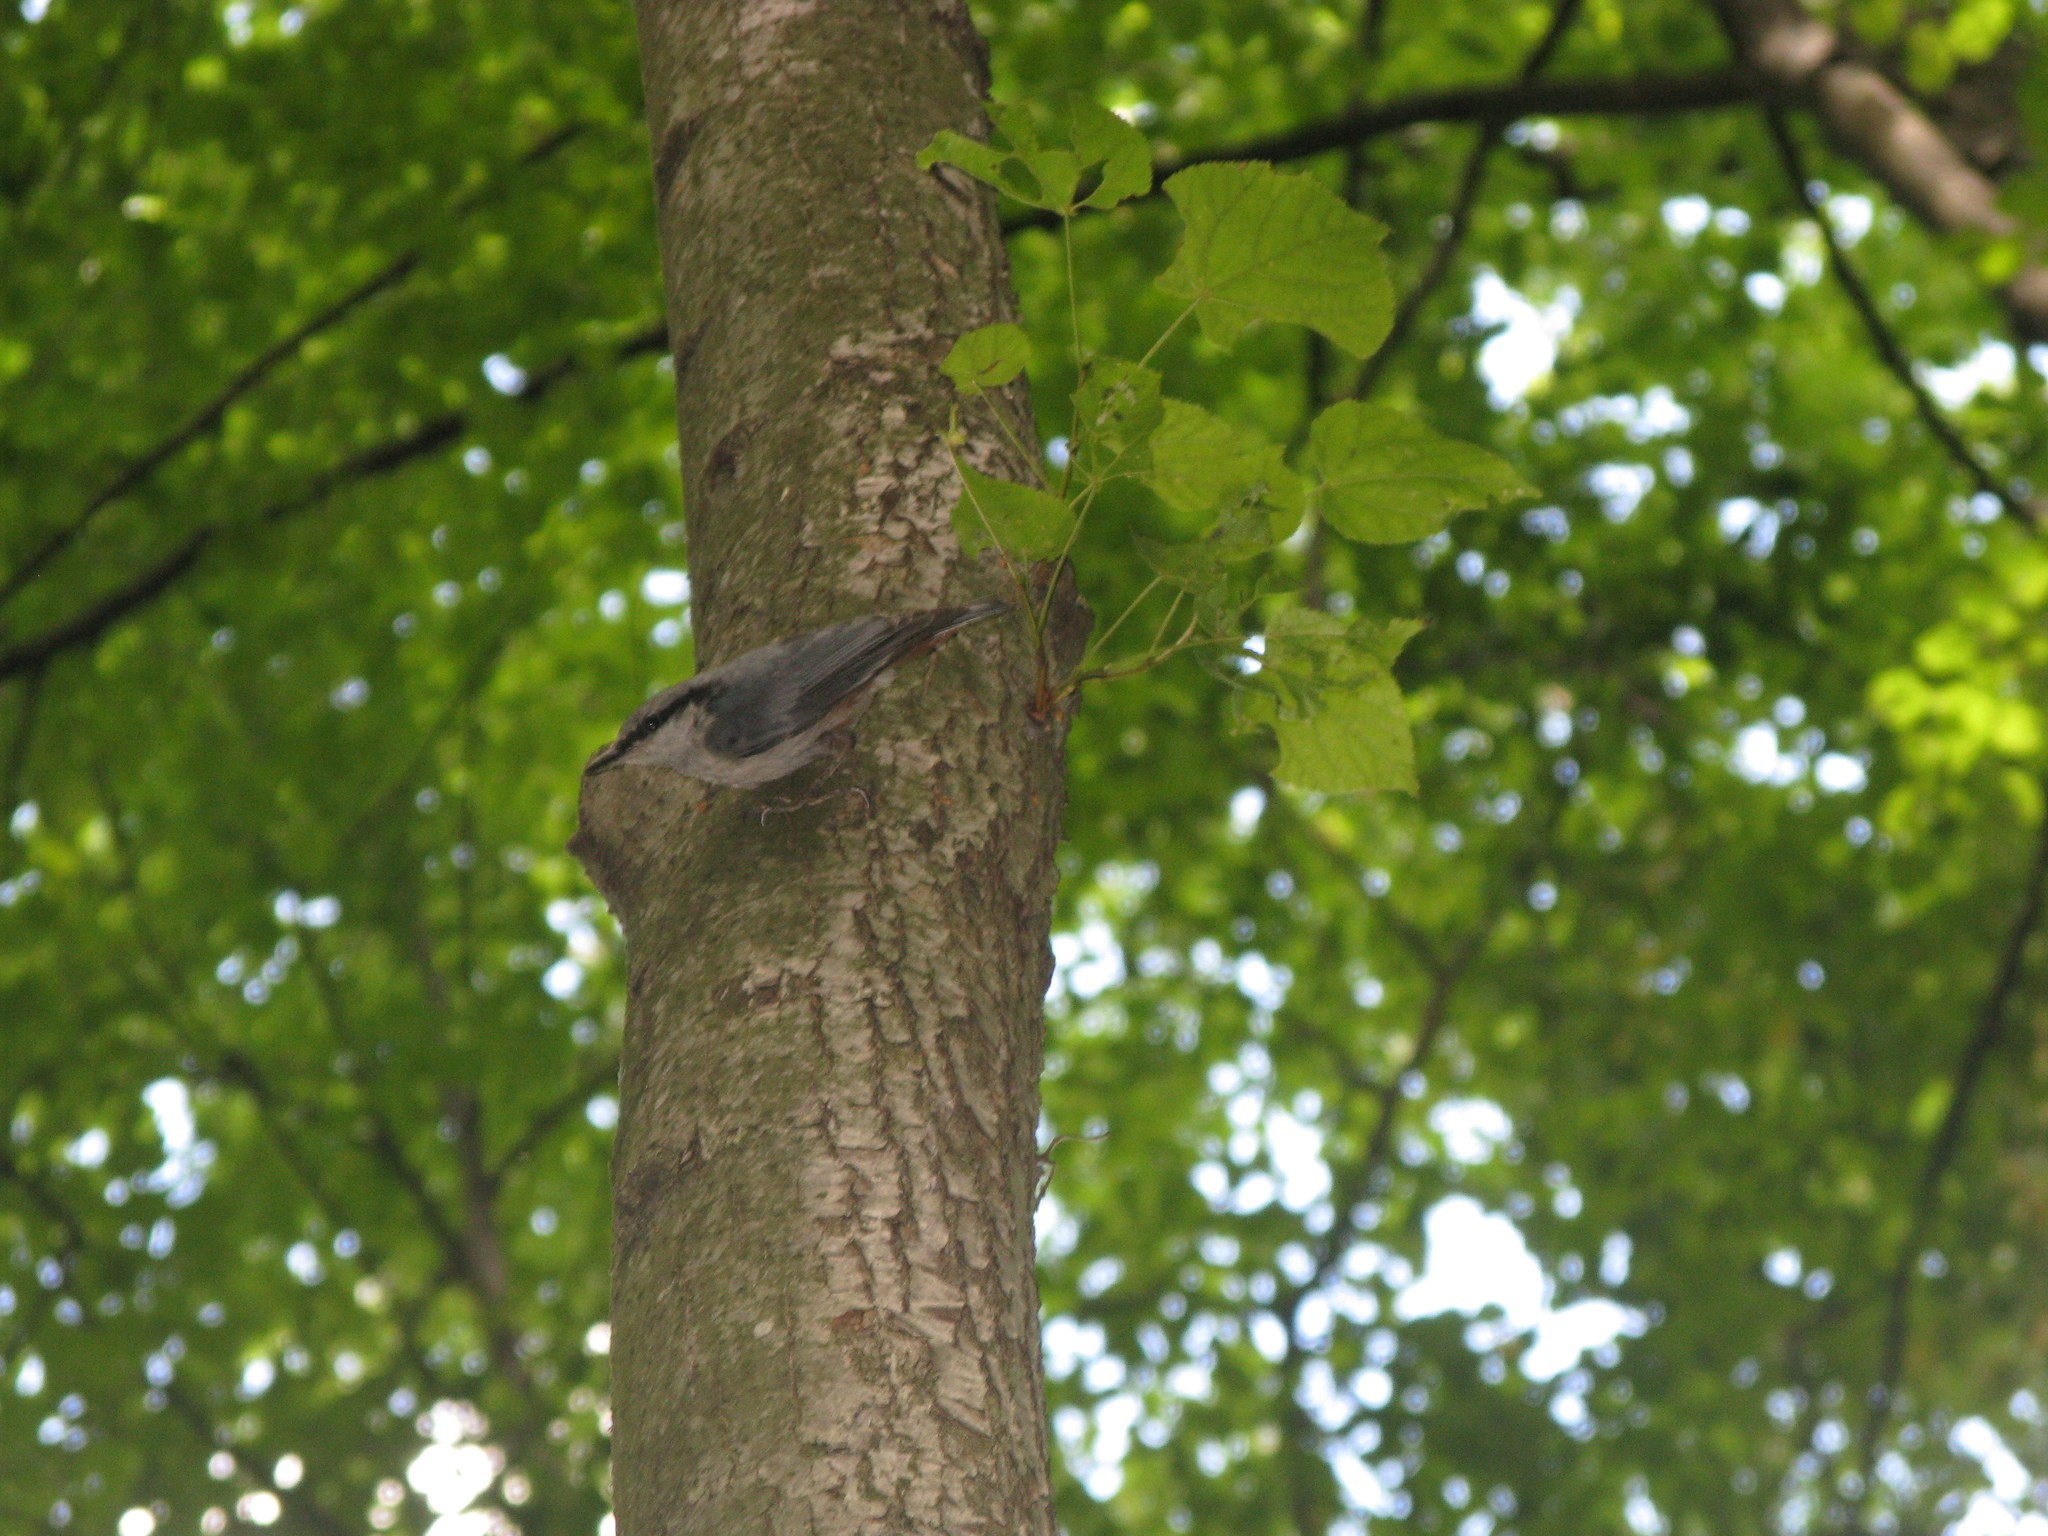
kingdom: Animalia
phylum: Chordata
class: Aves
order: Passeriformes
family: Sittidae
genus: Sitta
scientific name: Sitta europaea
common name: Eurasian nuthatch
